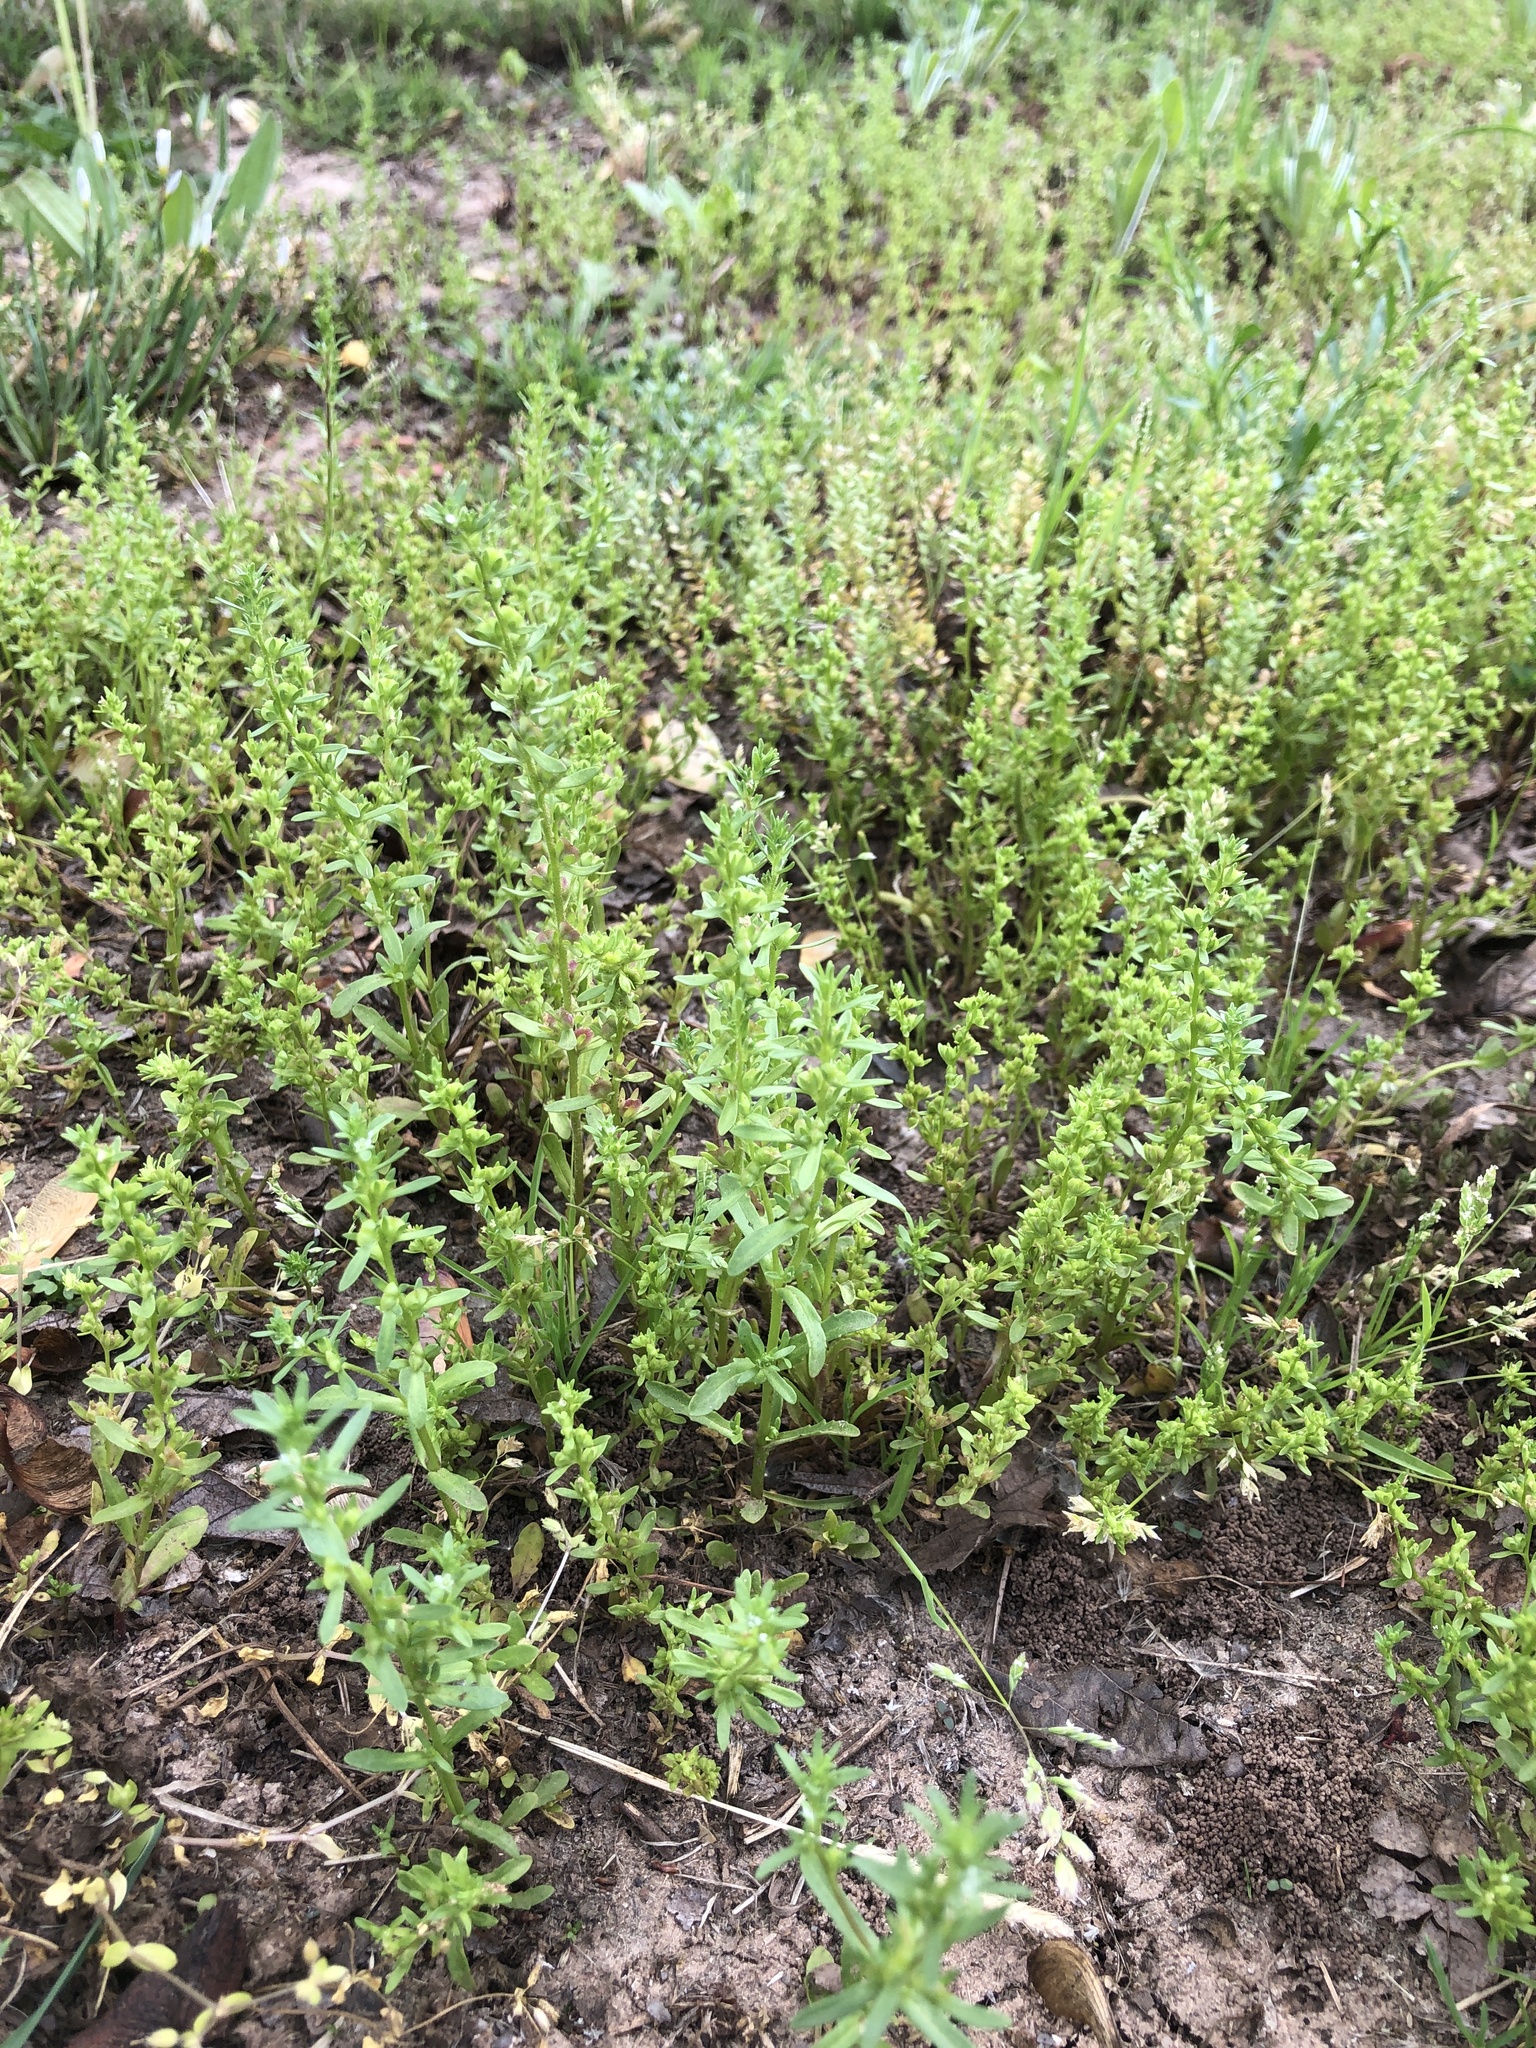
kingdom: Plantae
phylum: Tracheophyta
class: Magnoliopsida
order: Lamiales
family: Plantaginaceae
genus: Veronica
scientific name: Veronica peregrina
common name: Neckweed
